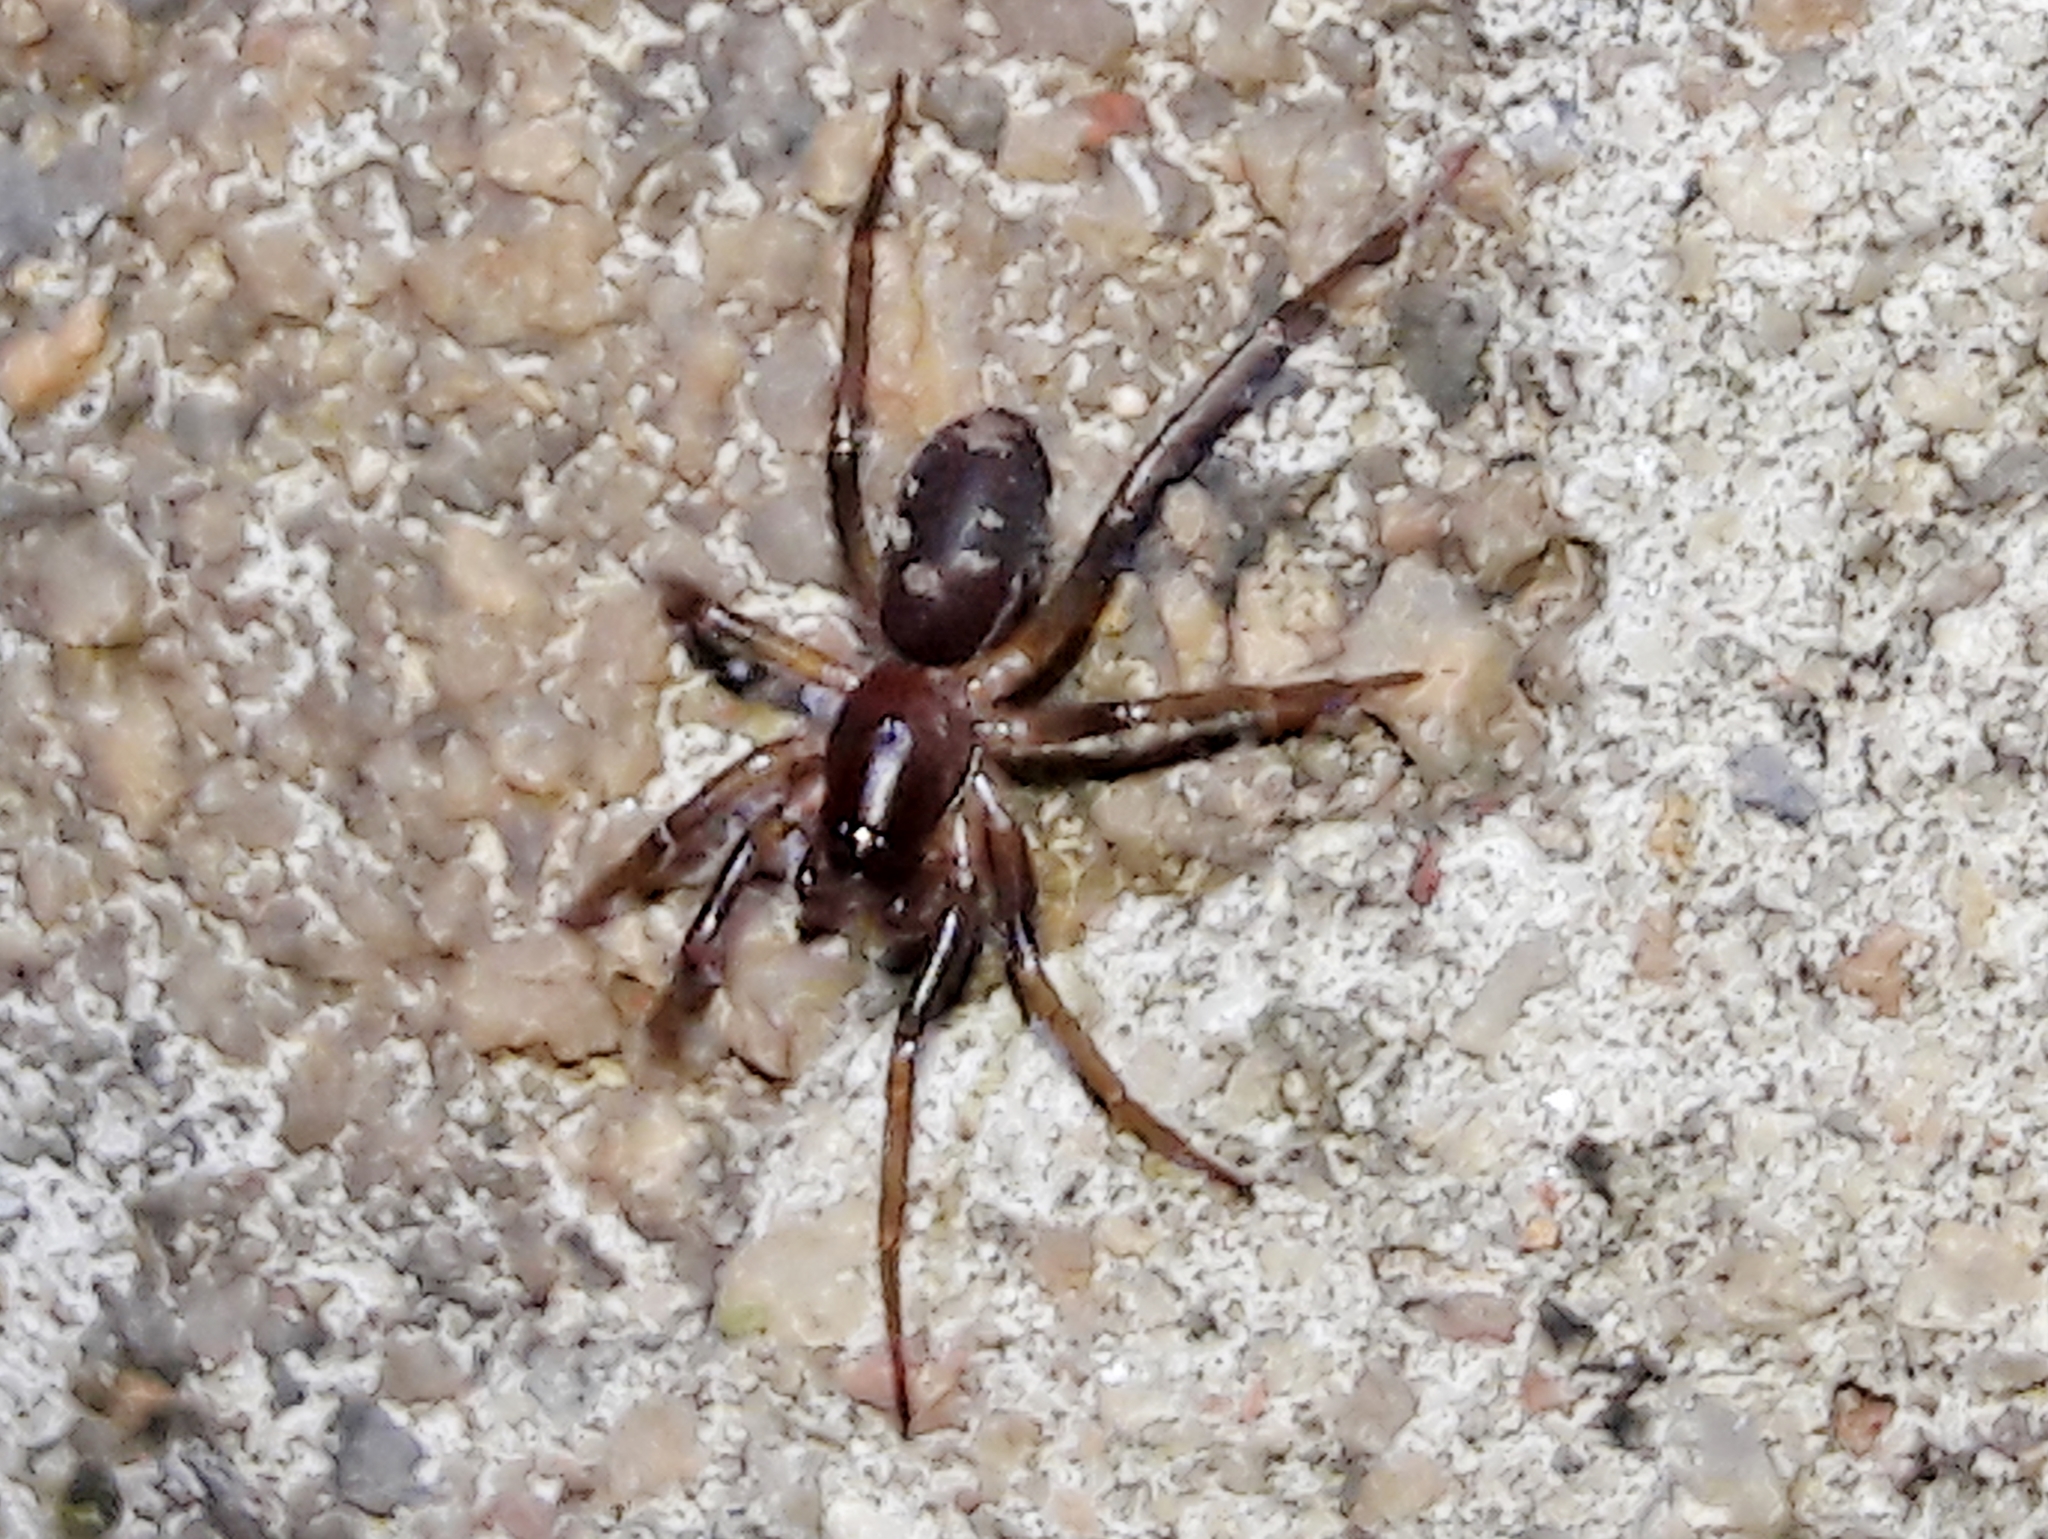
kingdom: Animalia
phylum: Arthropoda
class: Arachnida
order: Araneae
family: Corinnidae
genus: Falconina
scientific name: Falconina gracilis
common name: Antmimic spider
